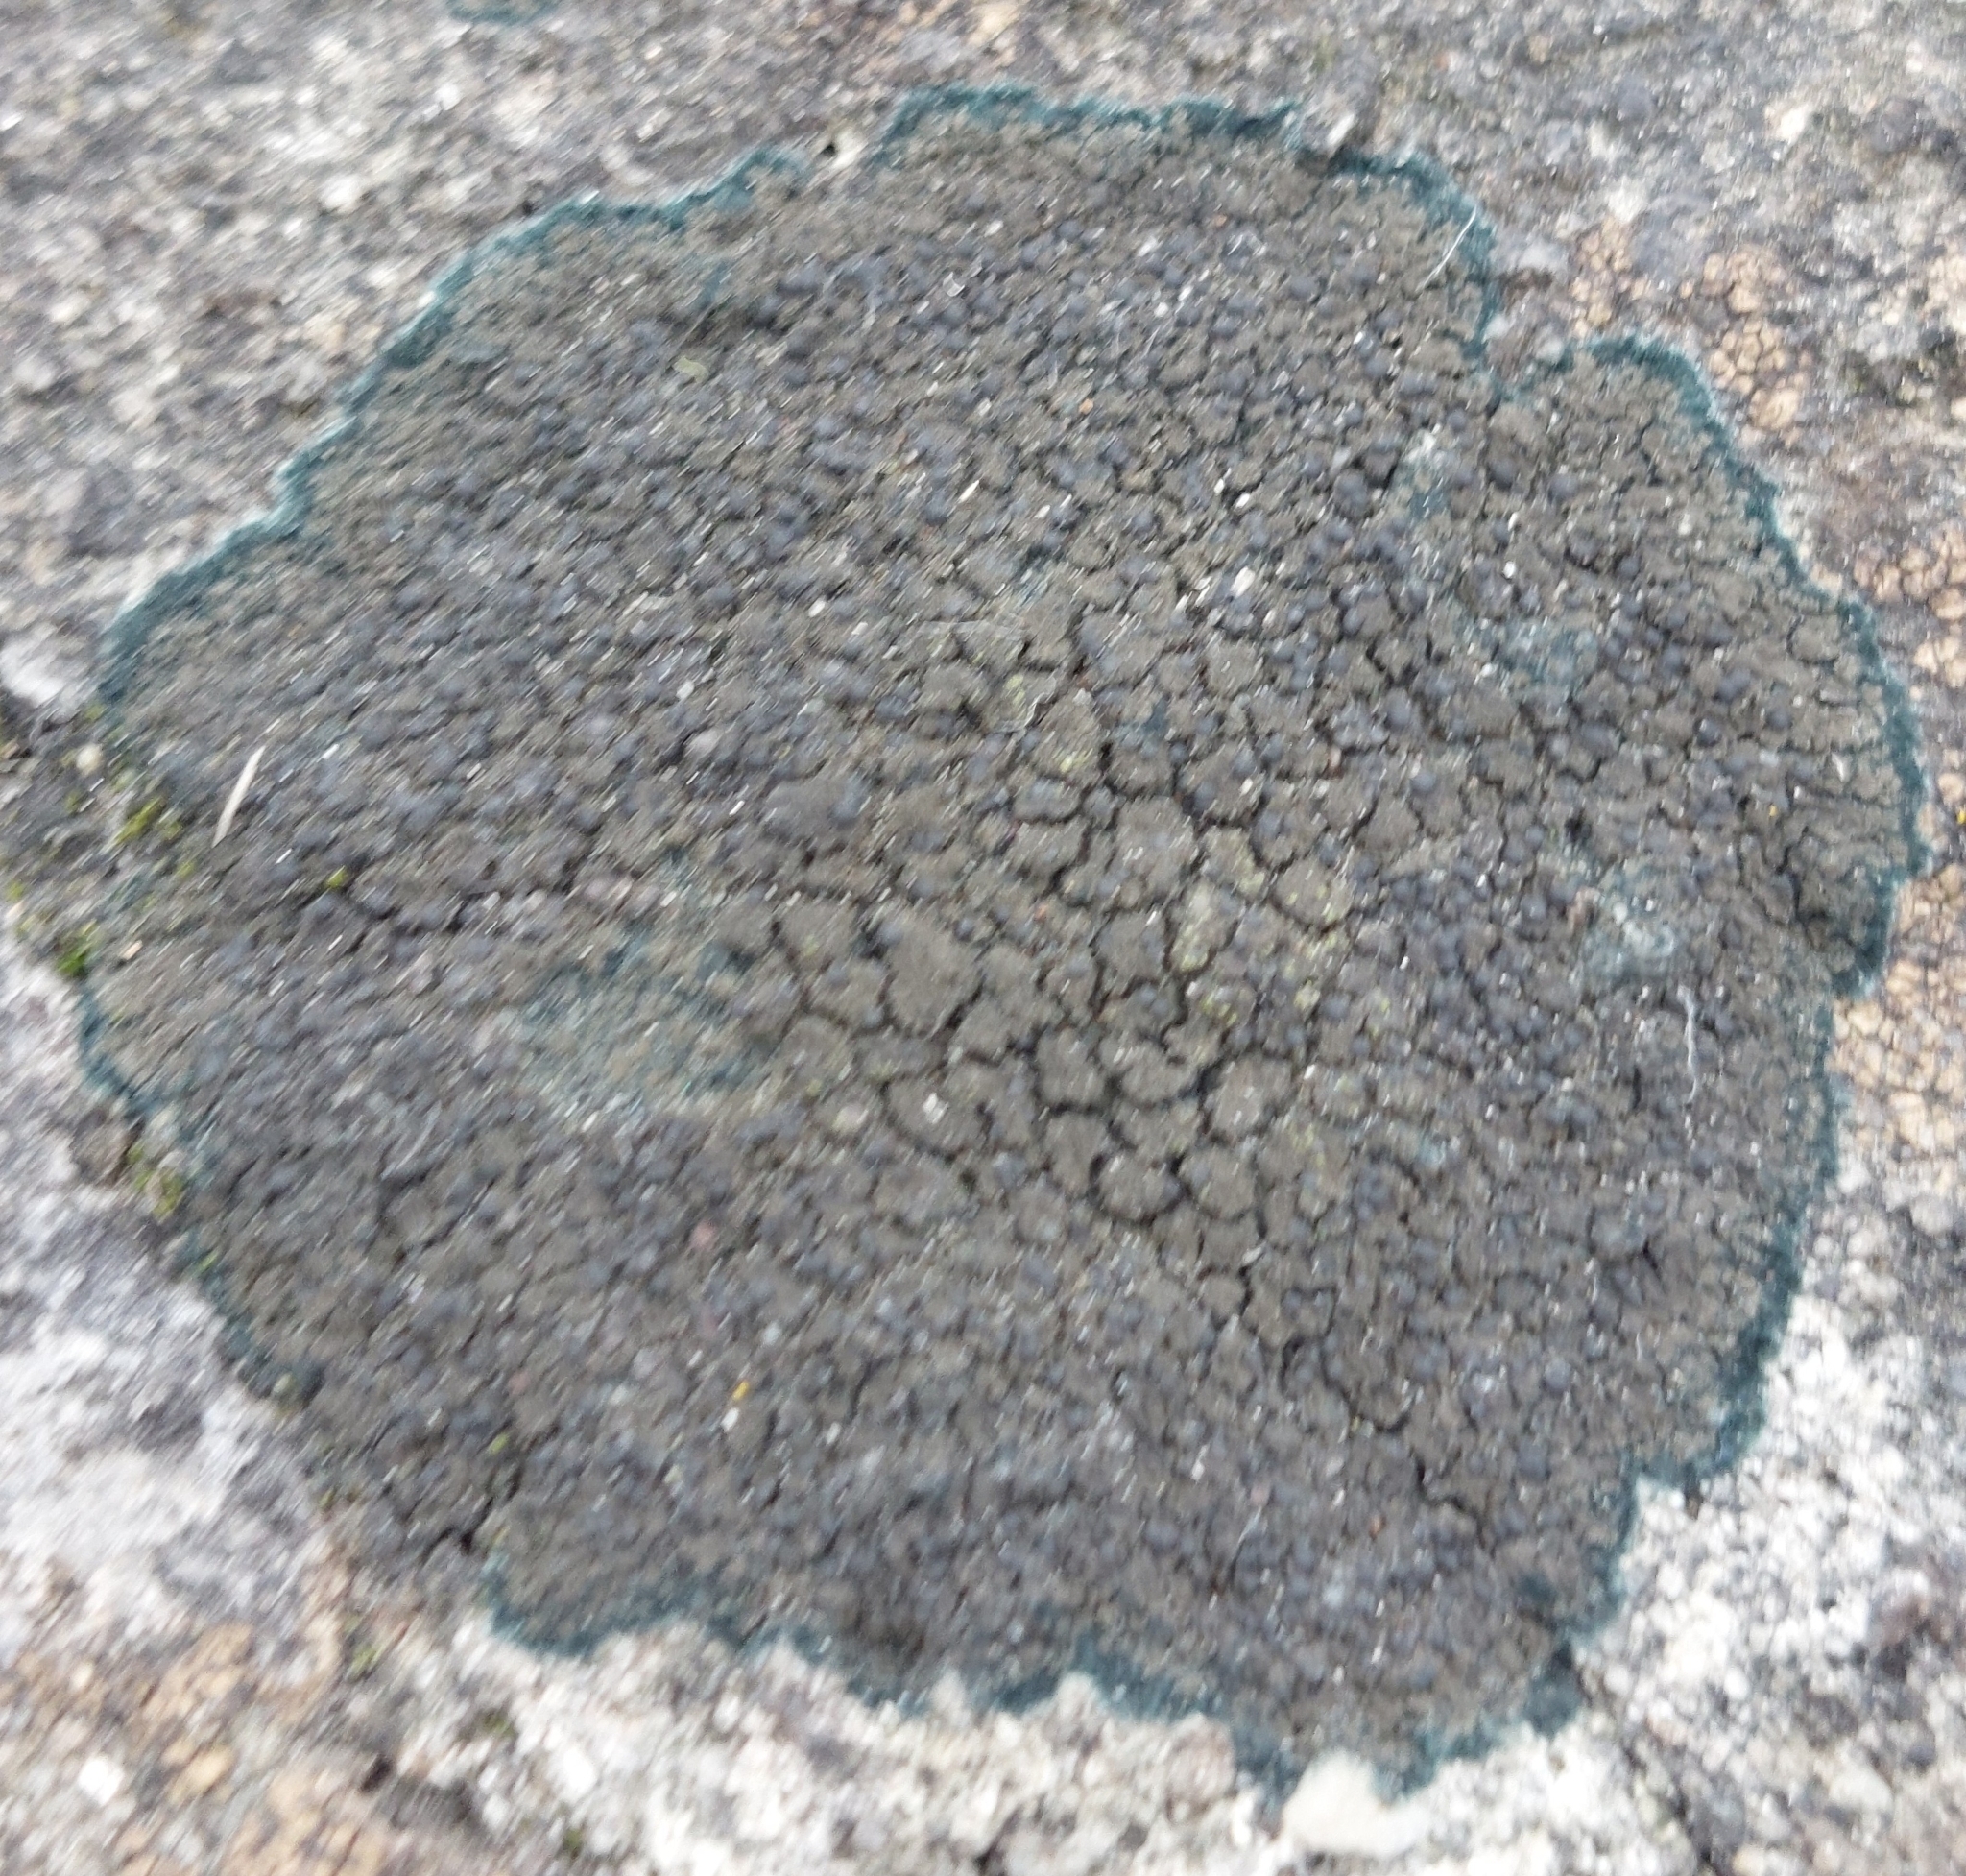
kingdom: Fungi
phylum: Ascomycota
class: Lecanoromycetes
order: Peltigerales
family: Placynthiaceae
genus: Placynthium
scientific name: Placynthium nigrum
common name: Blackthread lichen
